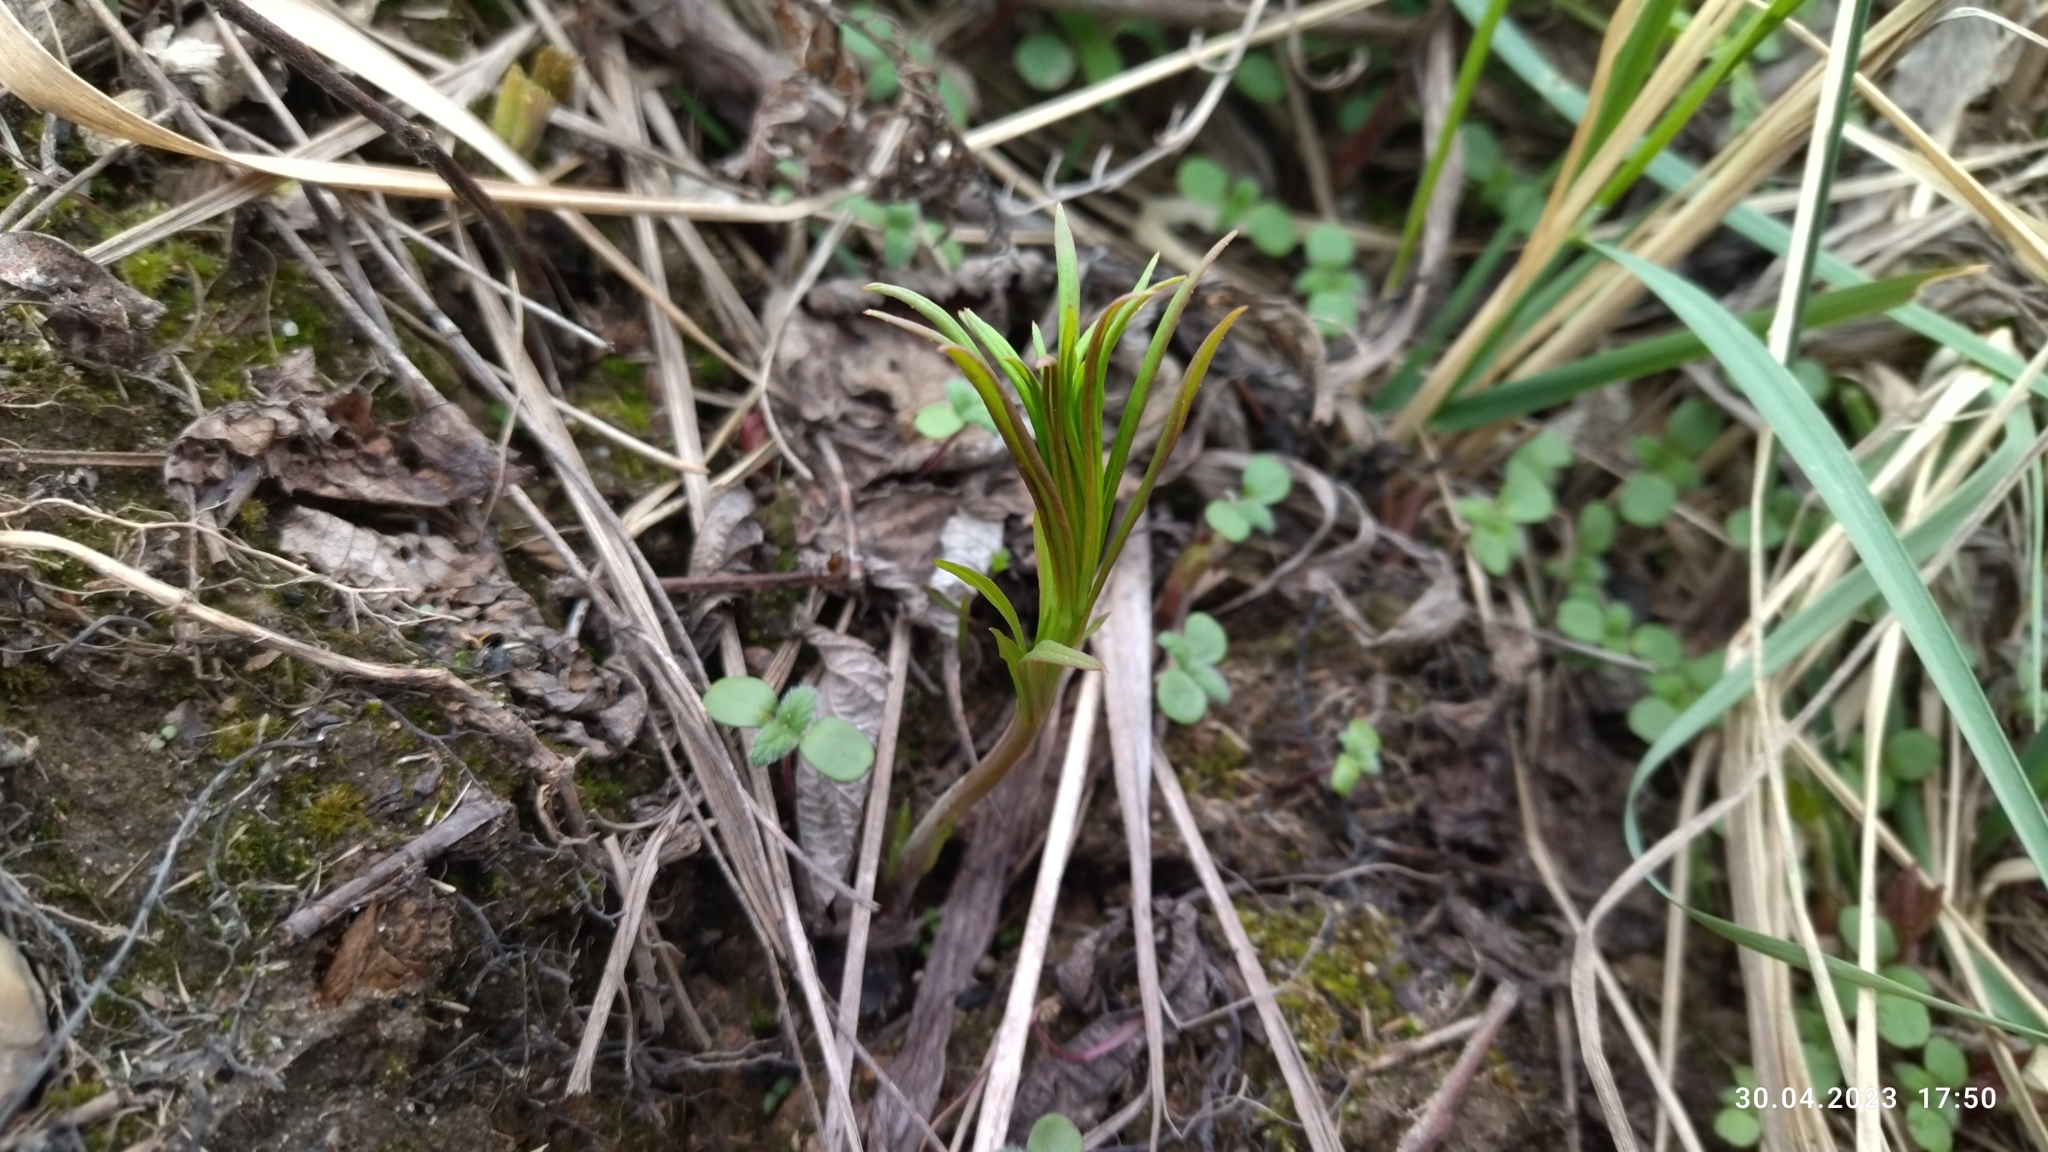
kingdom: Plantae
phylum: Tracheophyta
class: Magnoliopsida
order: Myrtales
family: Onagraceae
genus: Chamaenerion
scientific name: Chamaenerion angustifolium
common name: Fireweed
